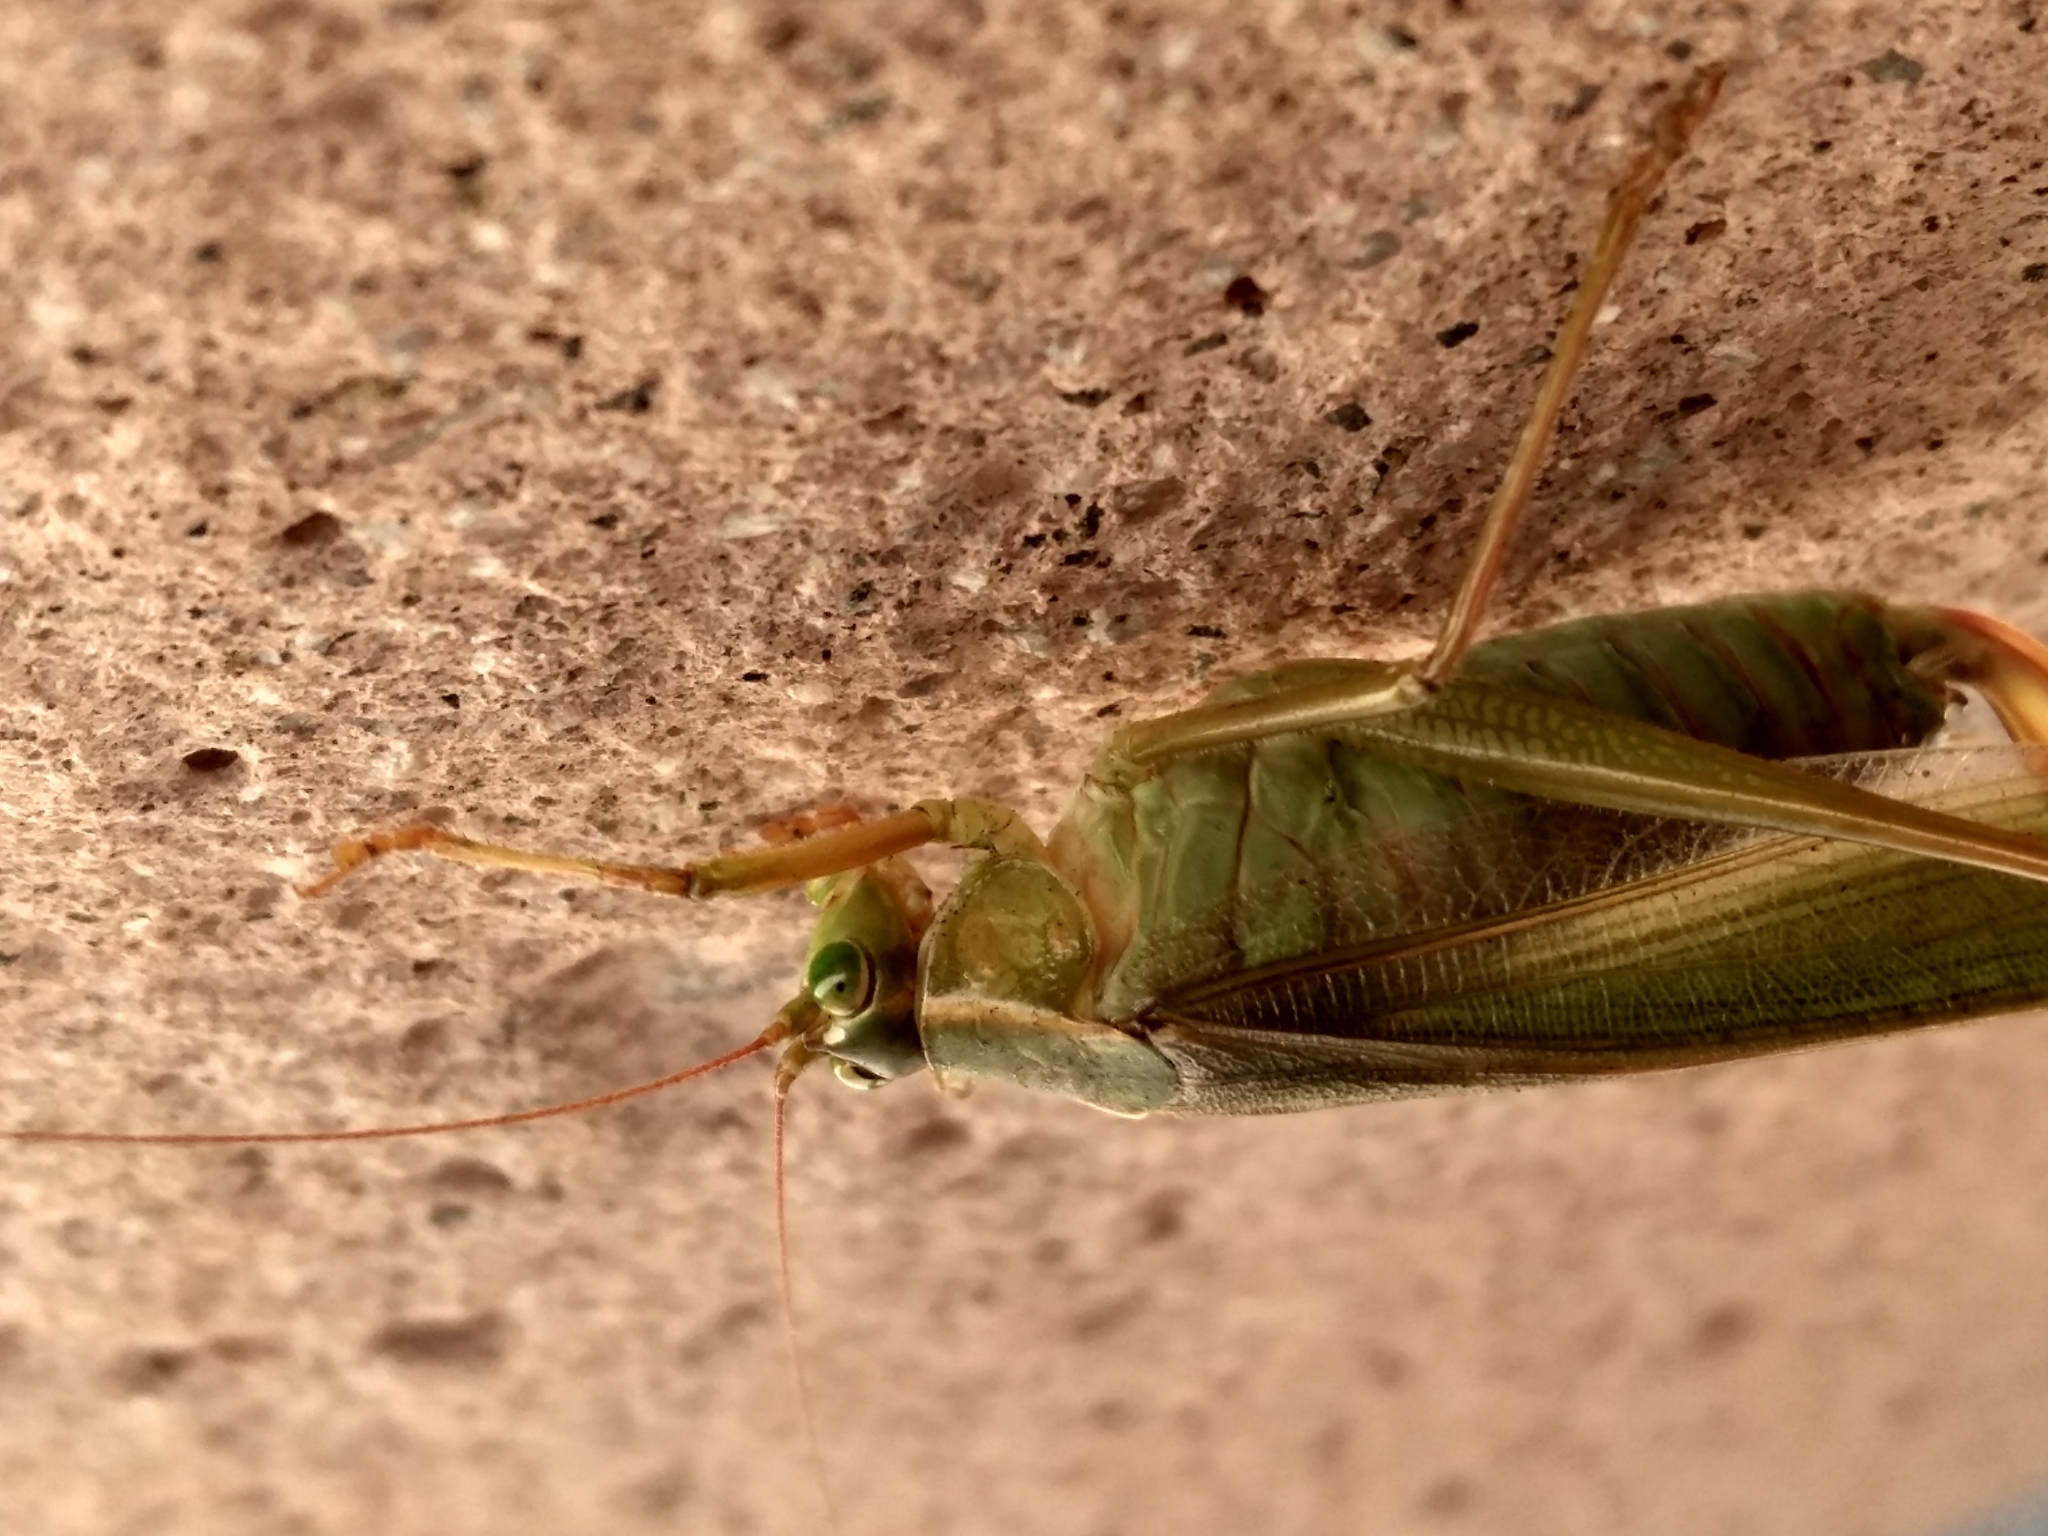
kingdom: Animalia
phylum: Arthropoda
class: Insecta
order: Orthoptera
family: Tettigoniidae
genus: Scudderia
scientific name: Scudderia
